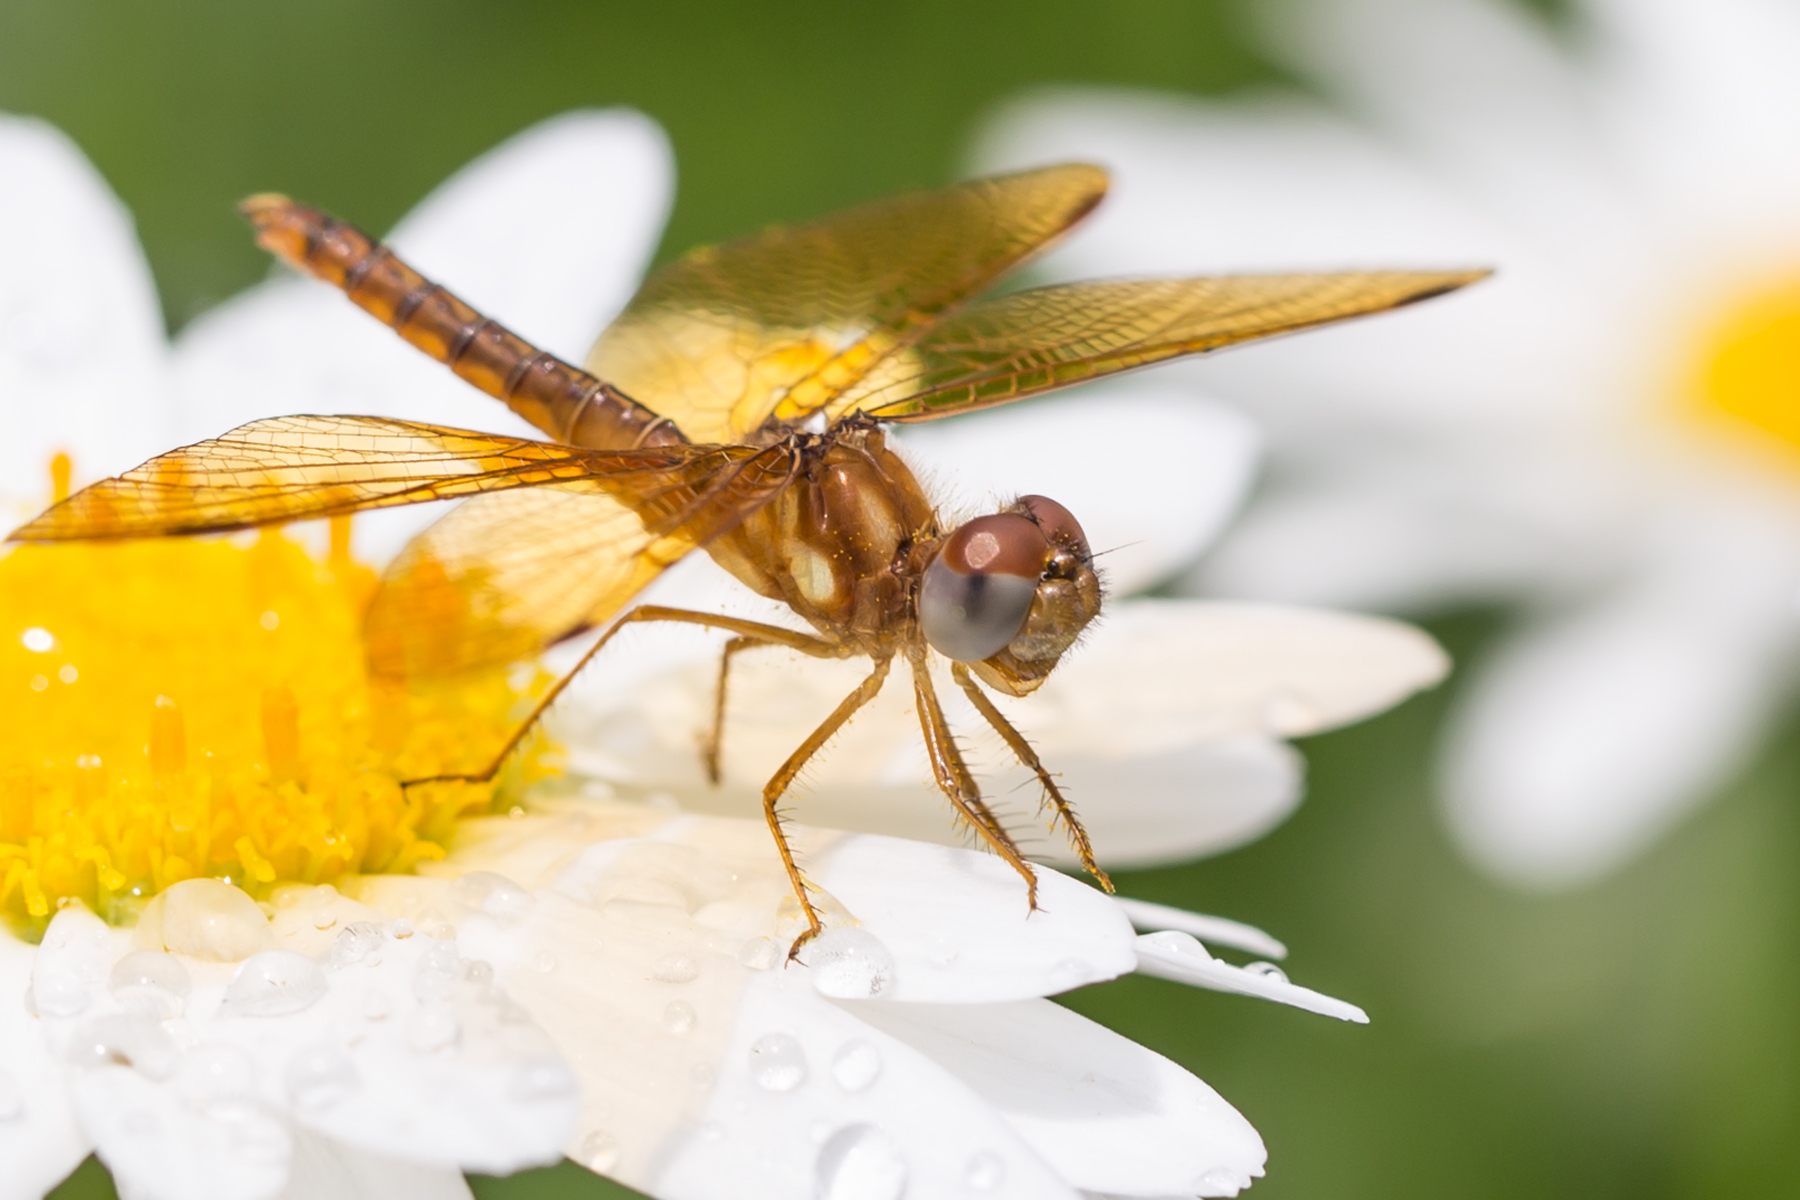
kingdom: Animalia
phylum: Arthropoda
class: Insecta
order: Odonata
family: Libellulidae
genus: Perithemis
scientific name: Perithemis tenera
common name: Eastern amberwing
